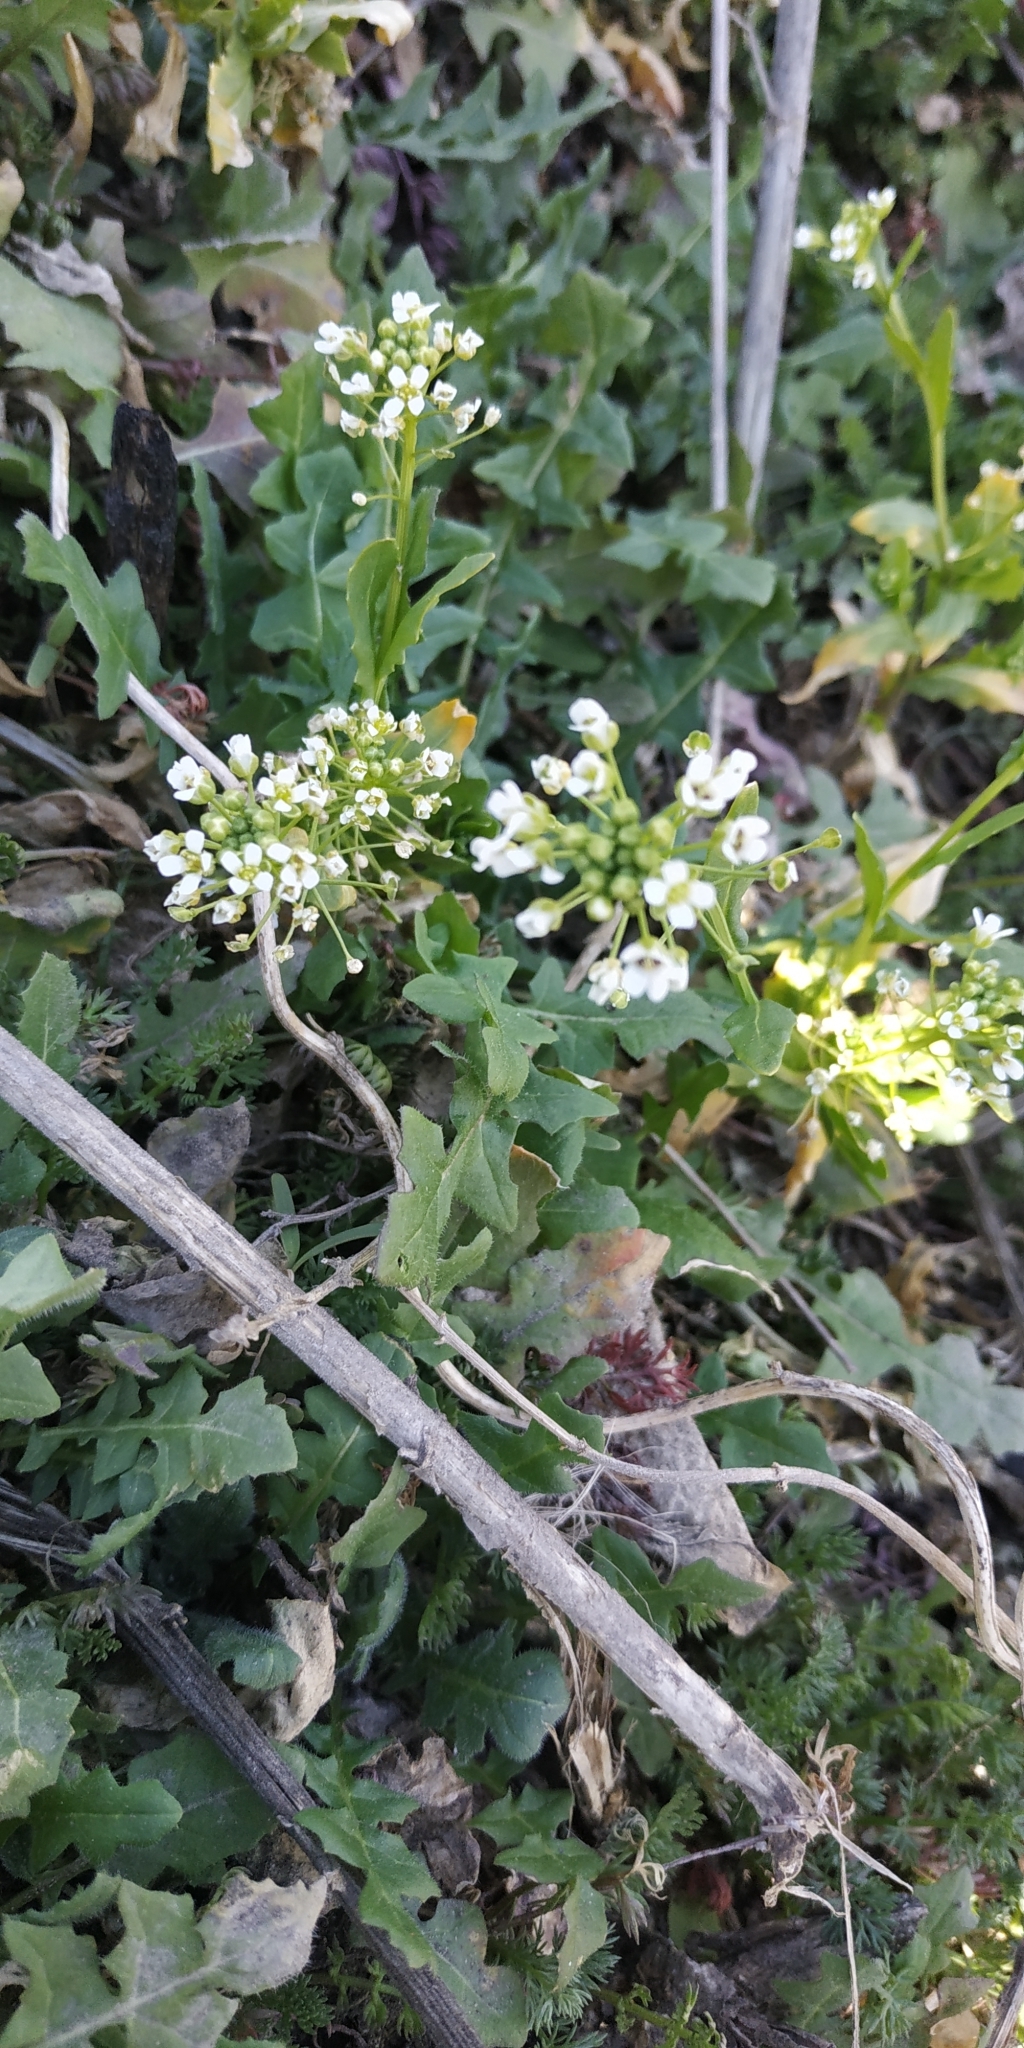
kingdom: Plantae
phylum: Tracheophyta
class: Magnoliopsida
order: Brassicales
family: Brassicaceae
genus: Thlaspi
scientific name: Thlaspi arvense
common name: Field pennycress
